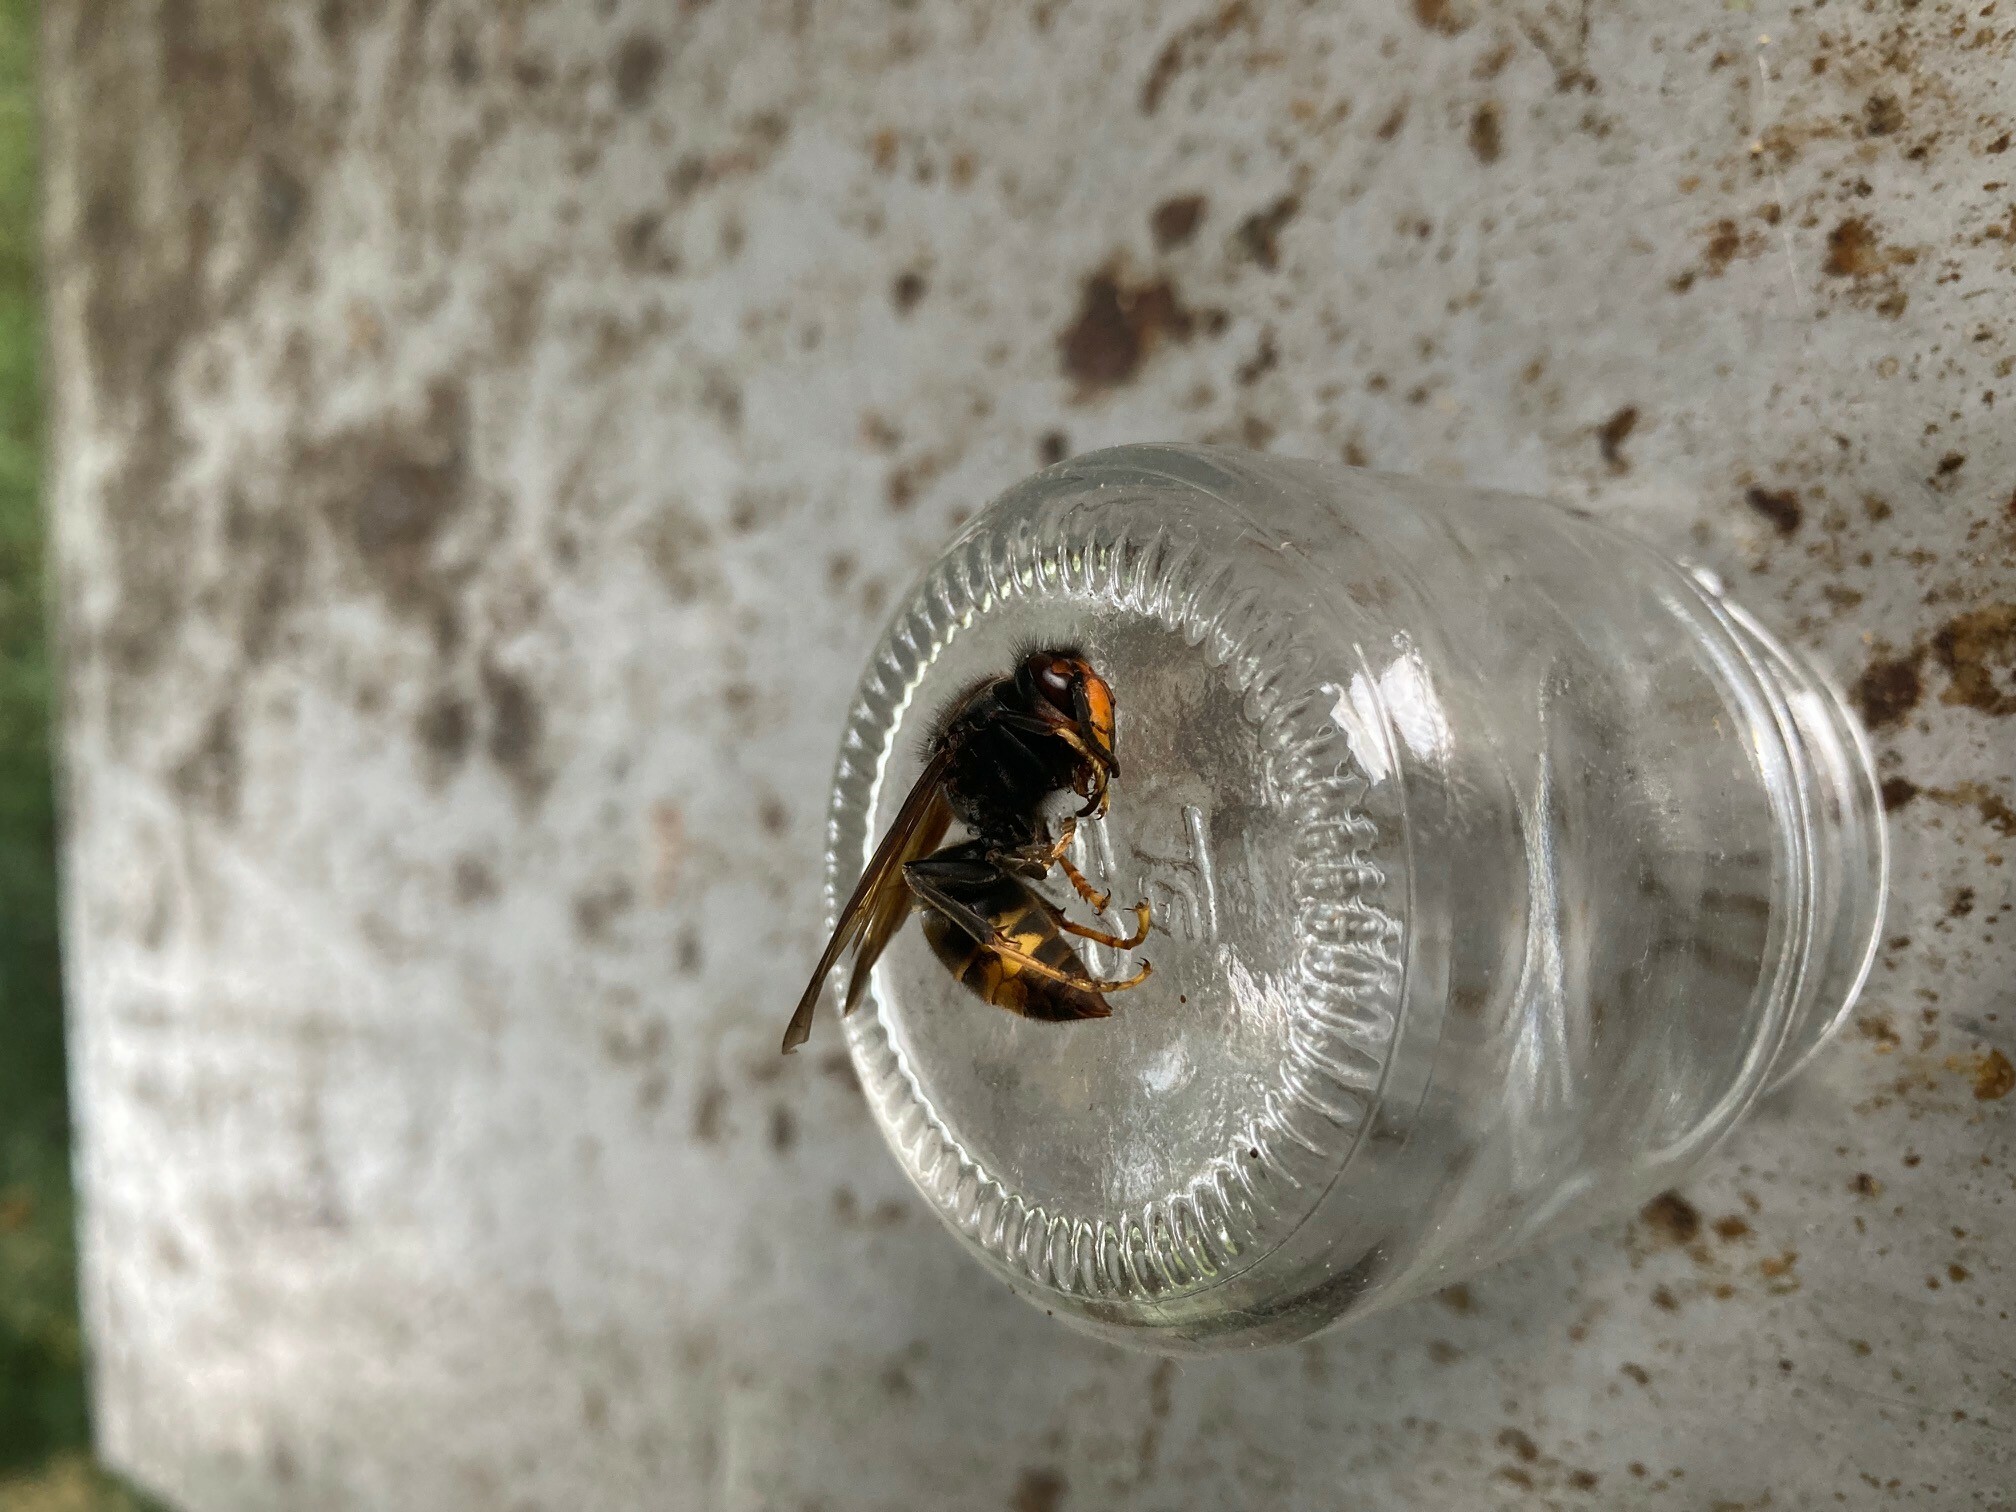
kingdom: Animalia
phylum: Arthropoda
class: Insecta
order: Hymenoptera
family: Vespidae
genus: Vespa
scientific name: Vespa velutina
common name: Asian hornet
